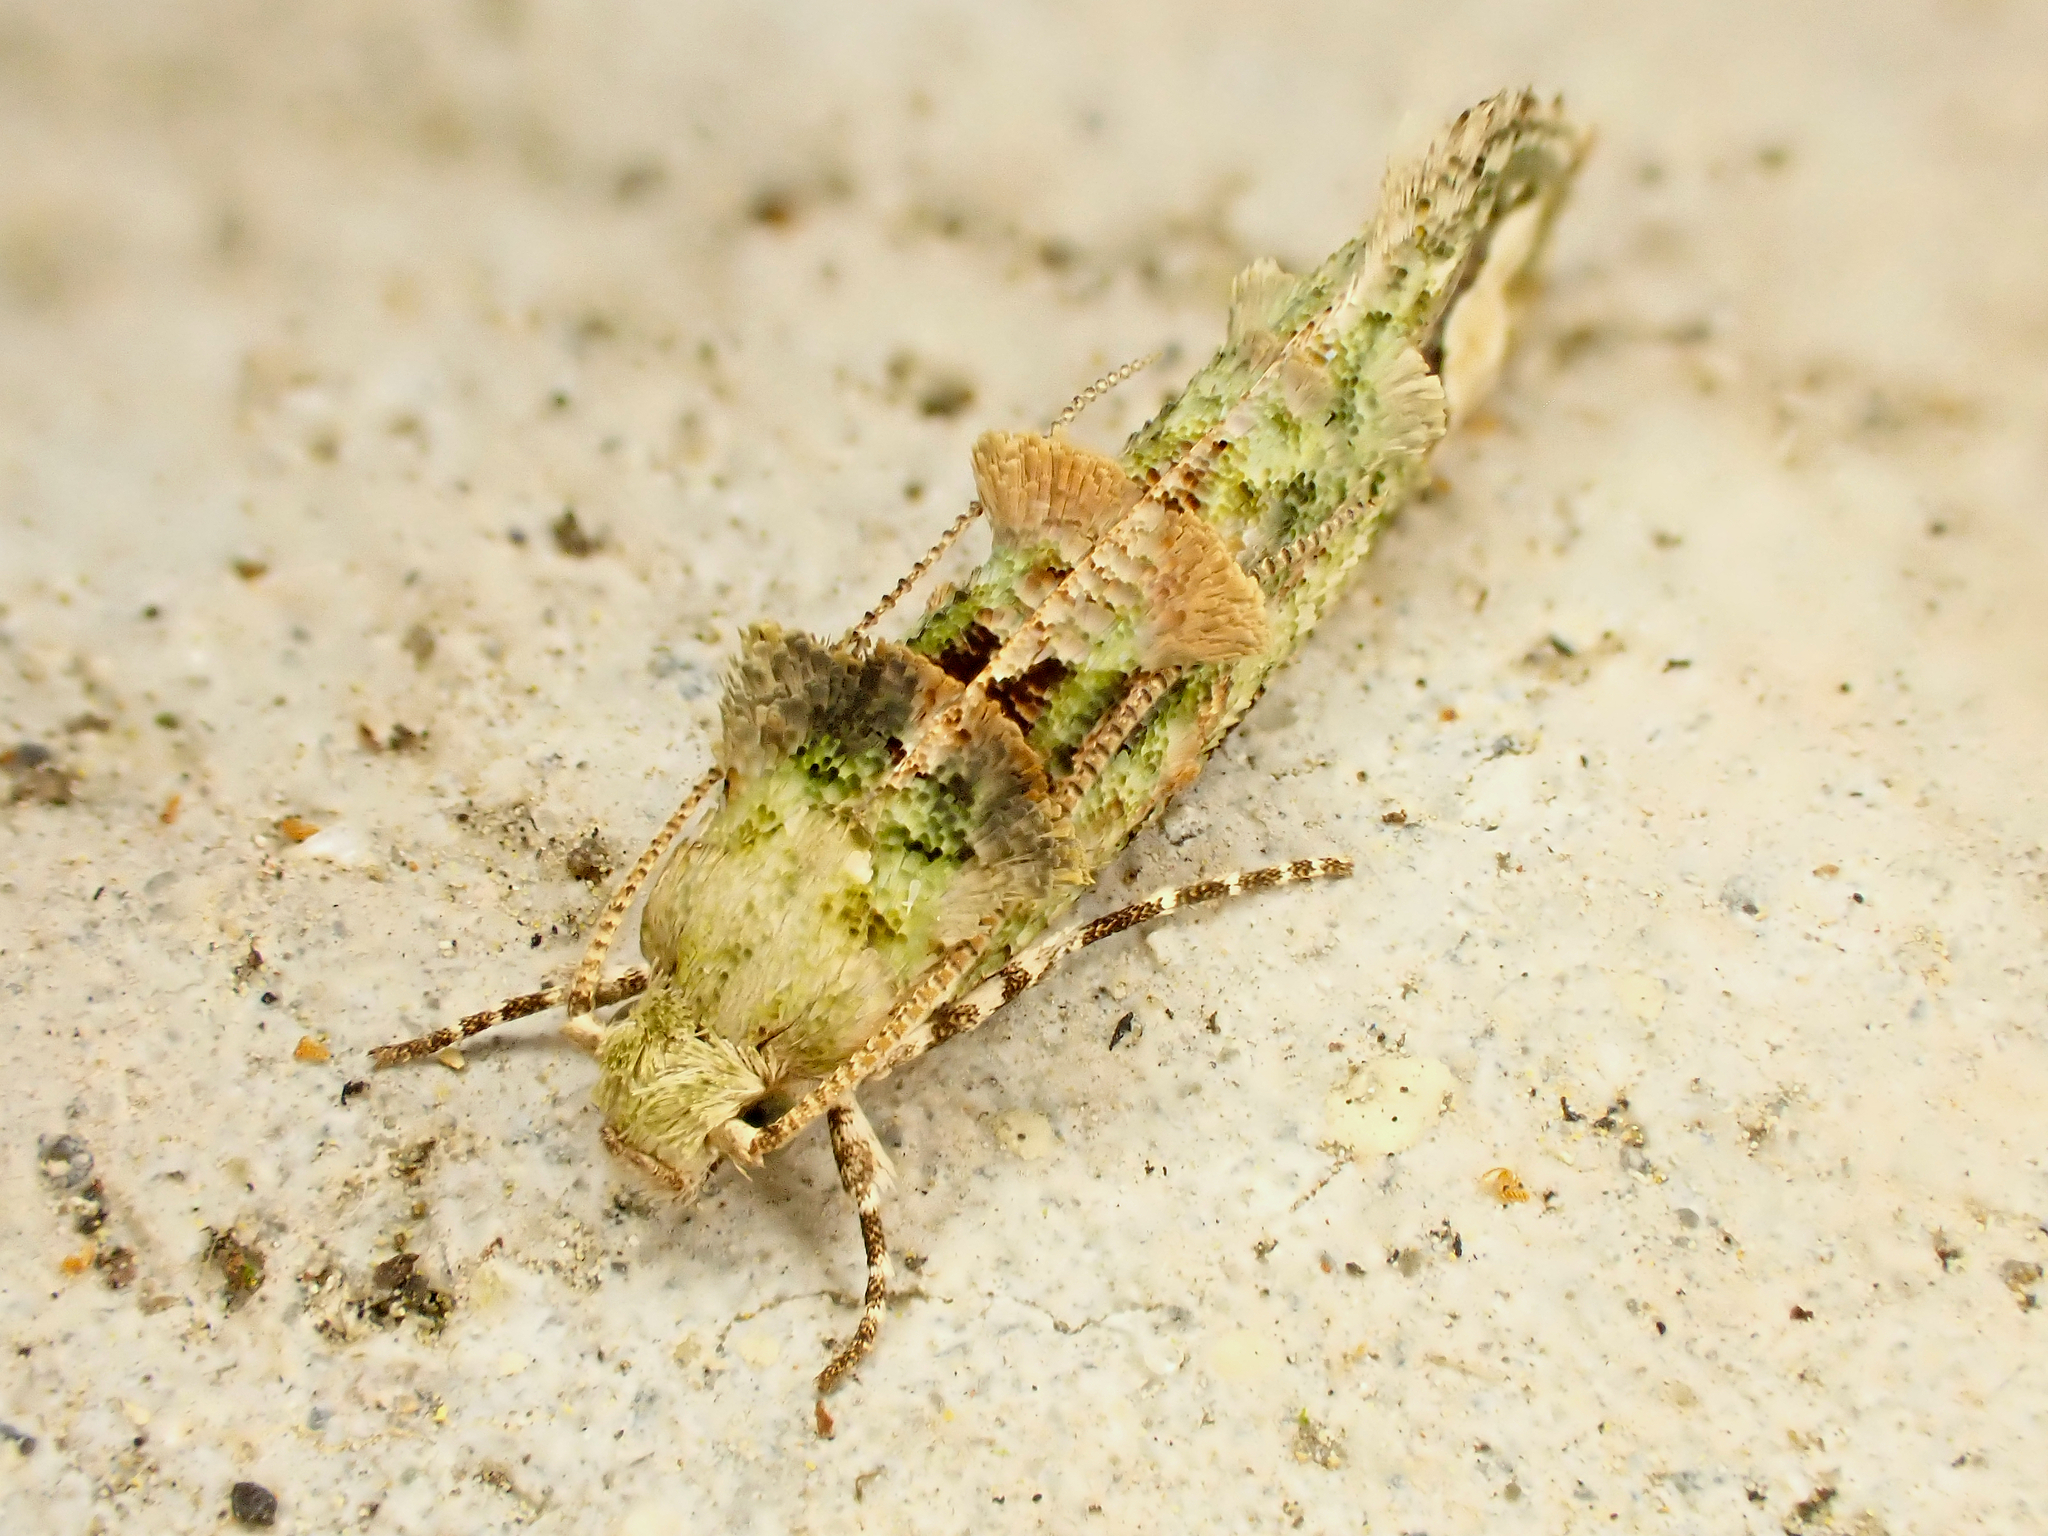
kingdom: Animalia
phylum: Arthropoda
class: Insecta
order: Lepidoptera
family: Tineidae
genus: Lysiphragma
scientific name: Lysiphragma mixochlora
